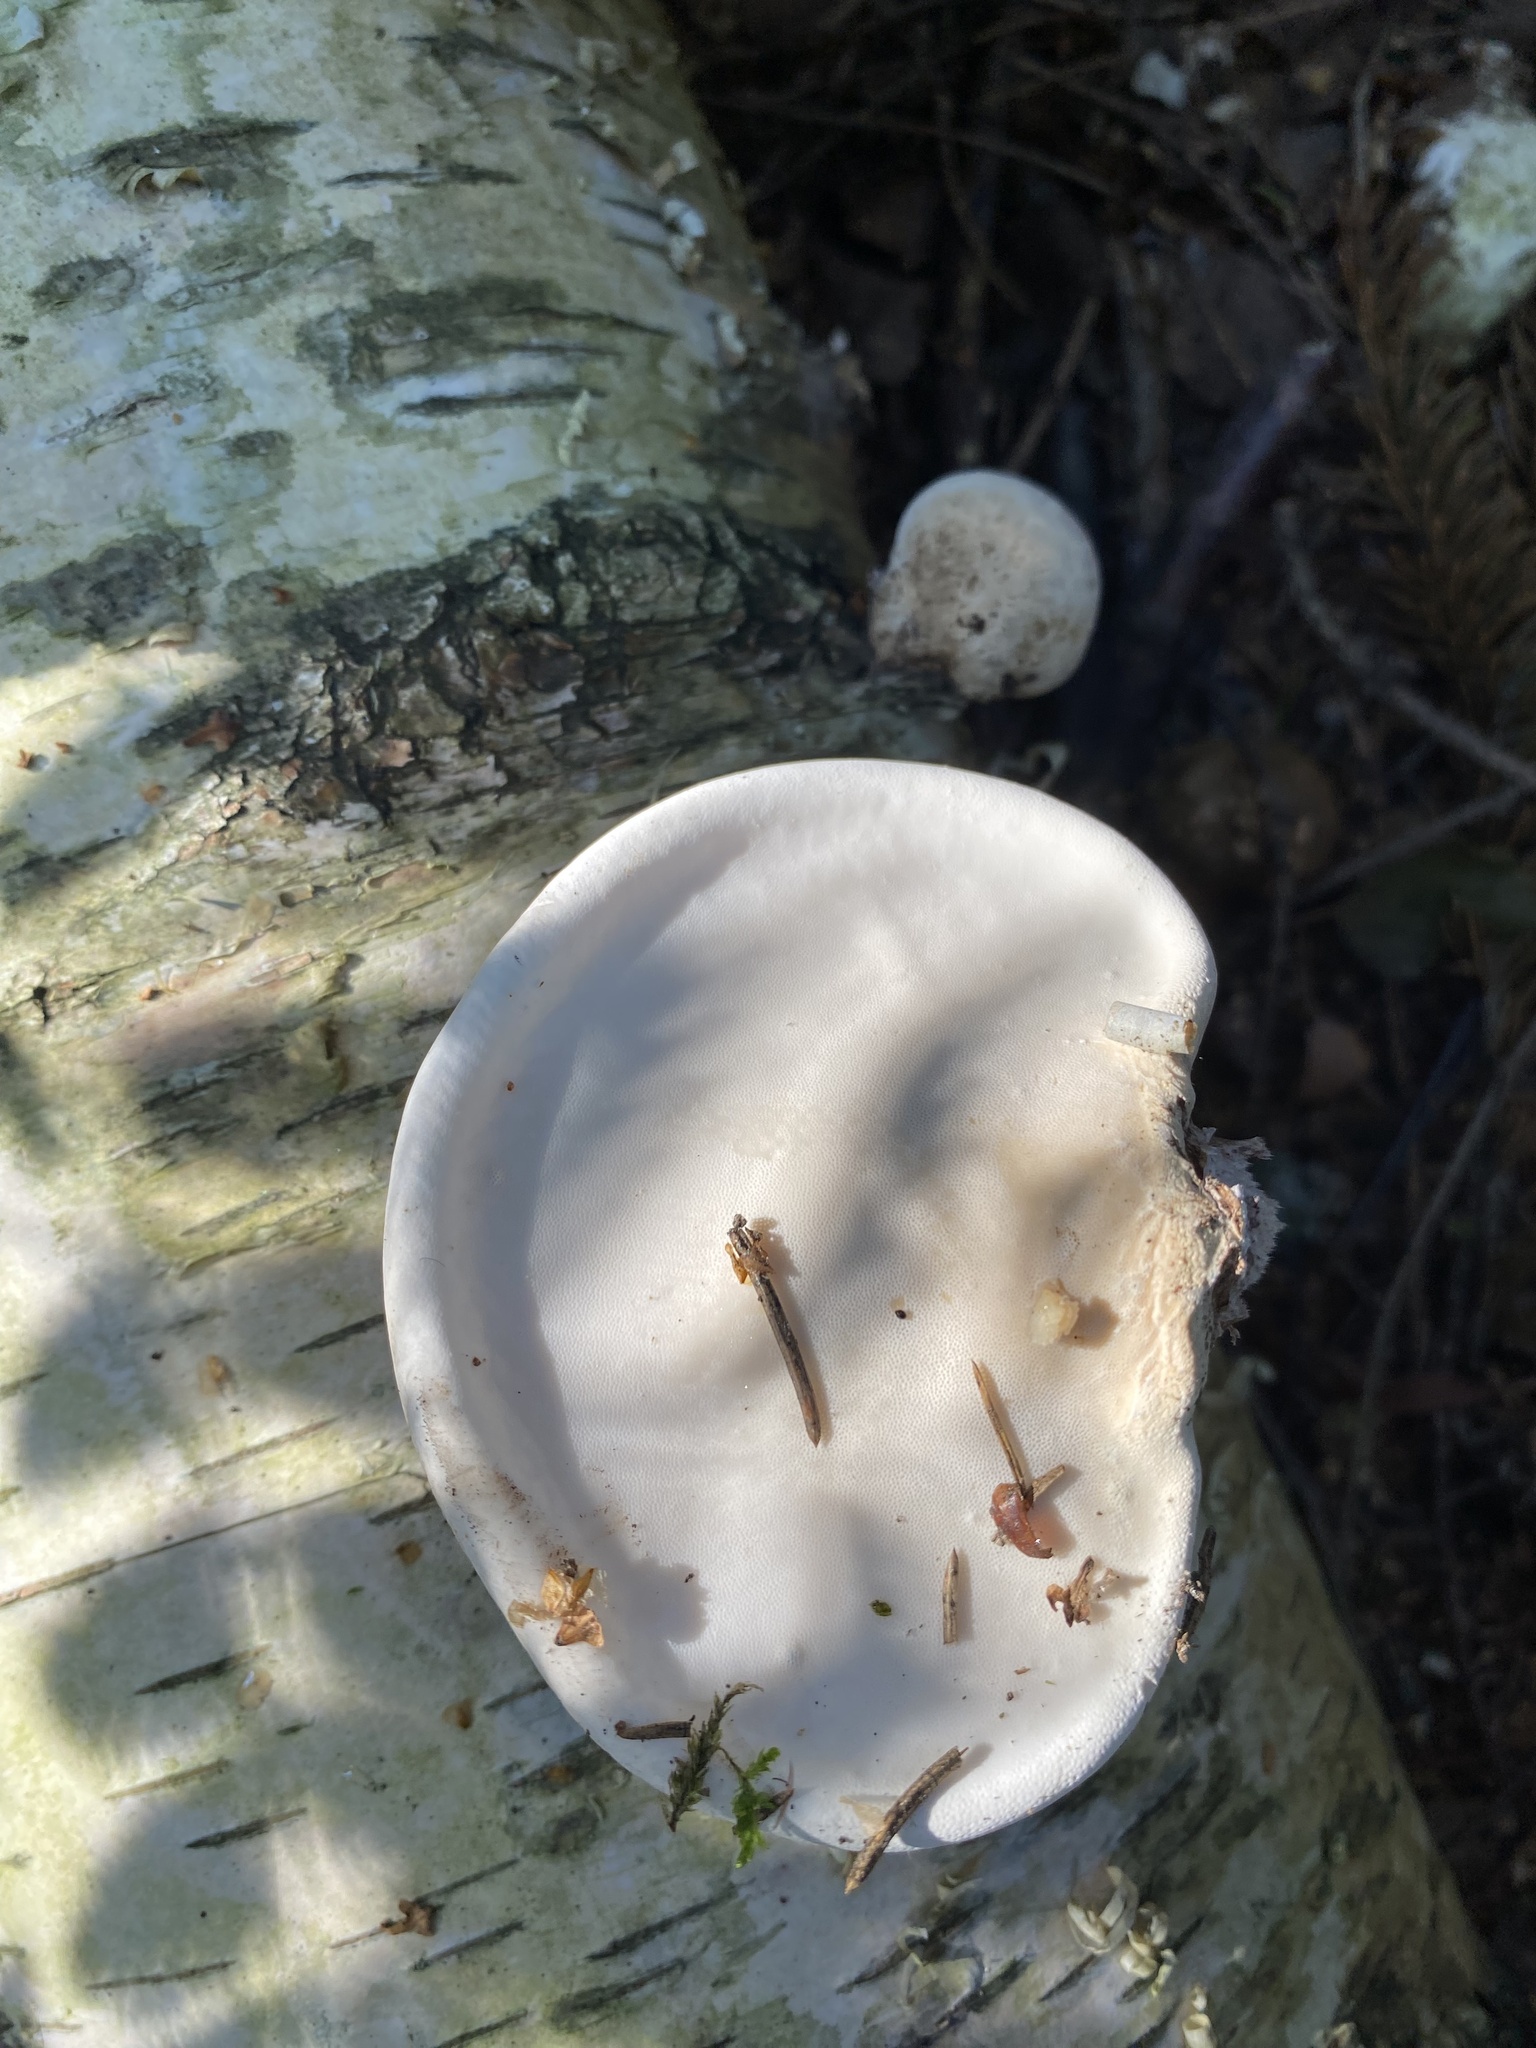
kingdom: Fungi
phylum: Basidiomycota
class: Agaricomycetes
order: Polyporales
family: Fomitopsidaceae
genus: Fomitopsis
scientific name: Fomitopsis betulina
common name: Birch polypore
